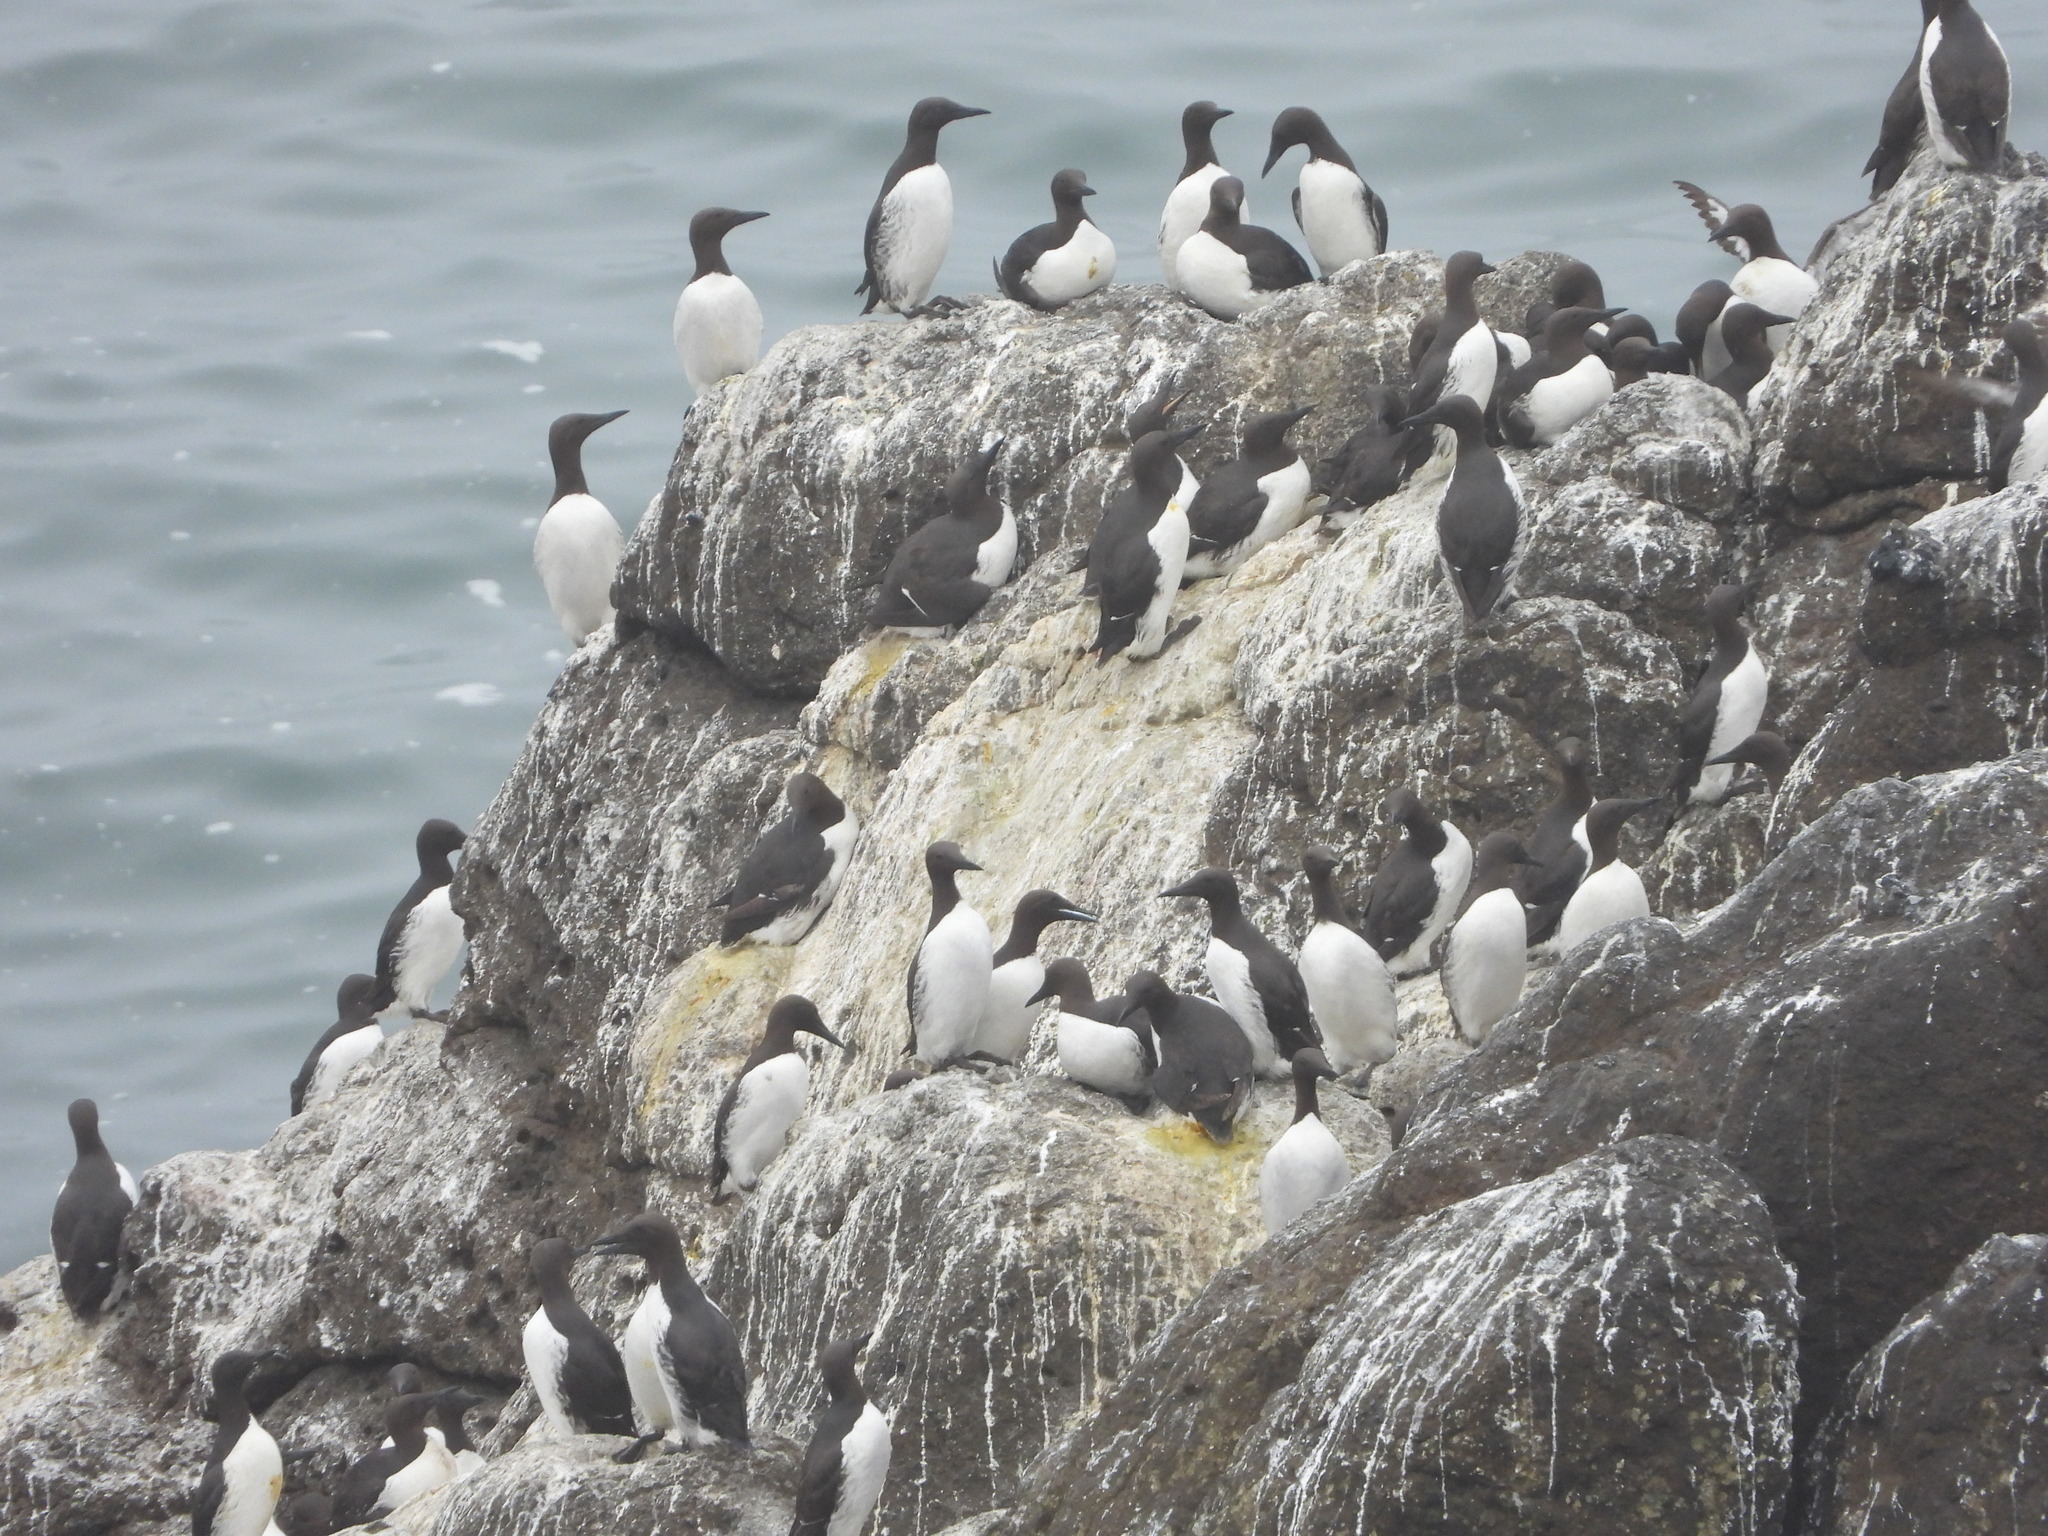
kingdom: Animalia
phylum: Chordata
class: Aves
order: Charadriiformes
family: Alcidae
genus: Uria
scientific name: Uria aalge
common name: Common murre
